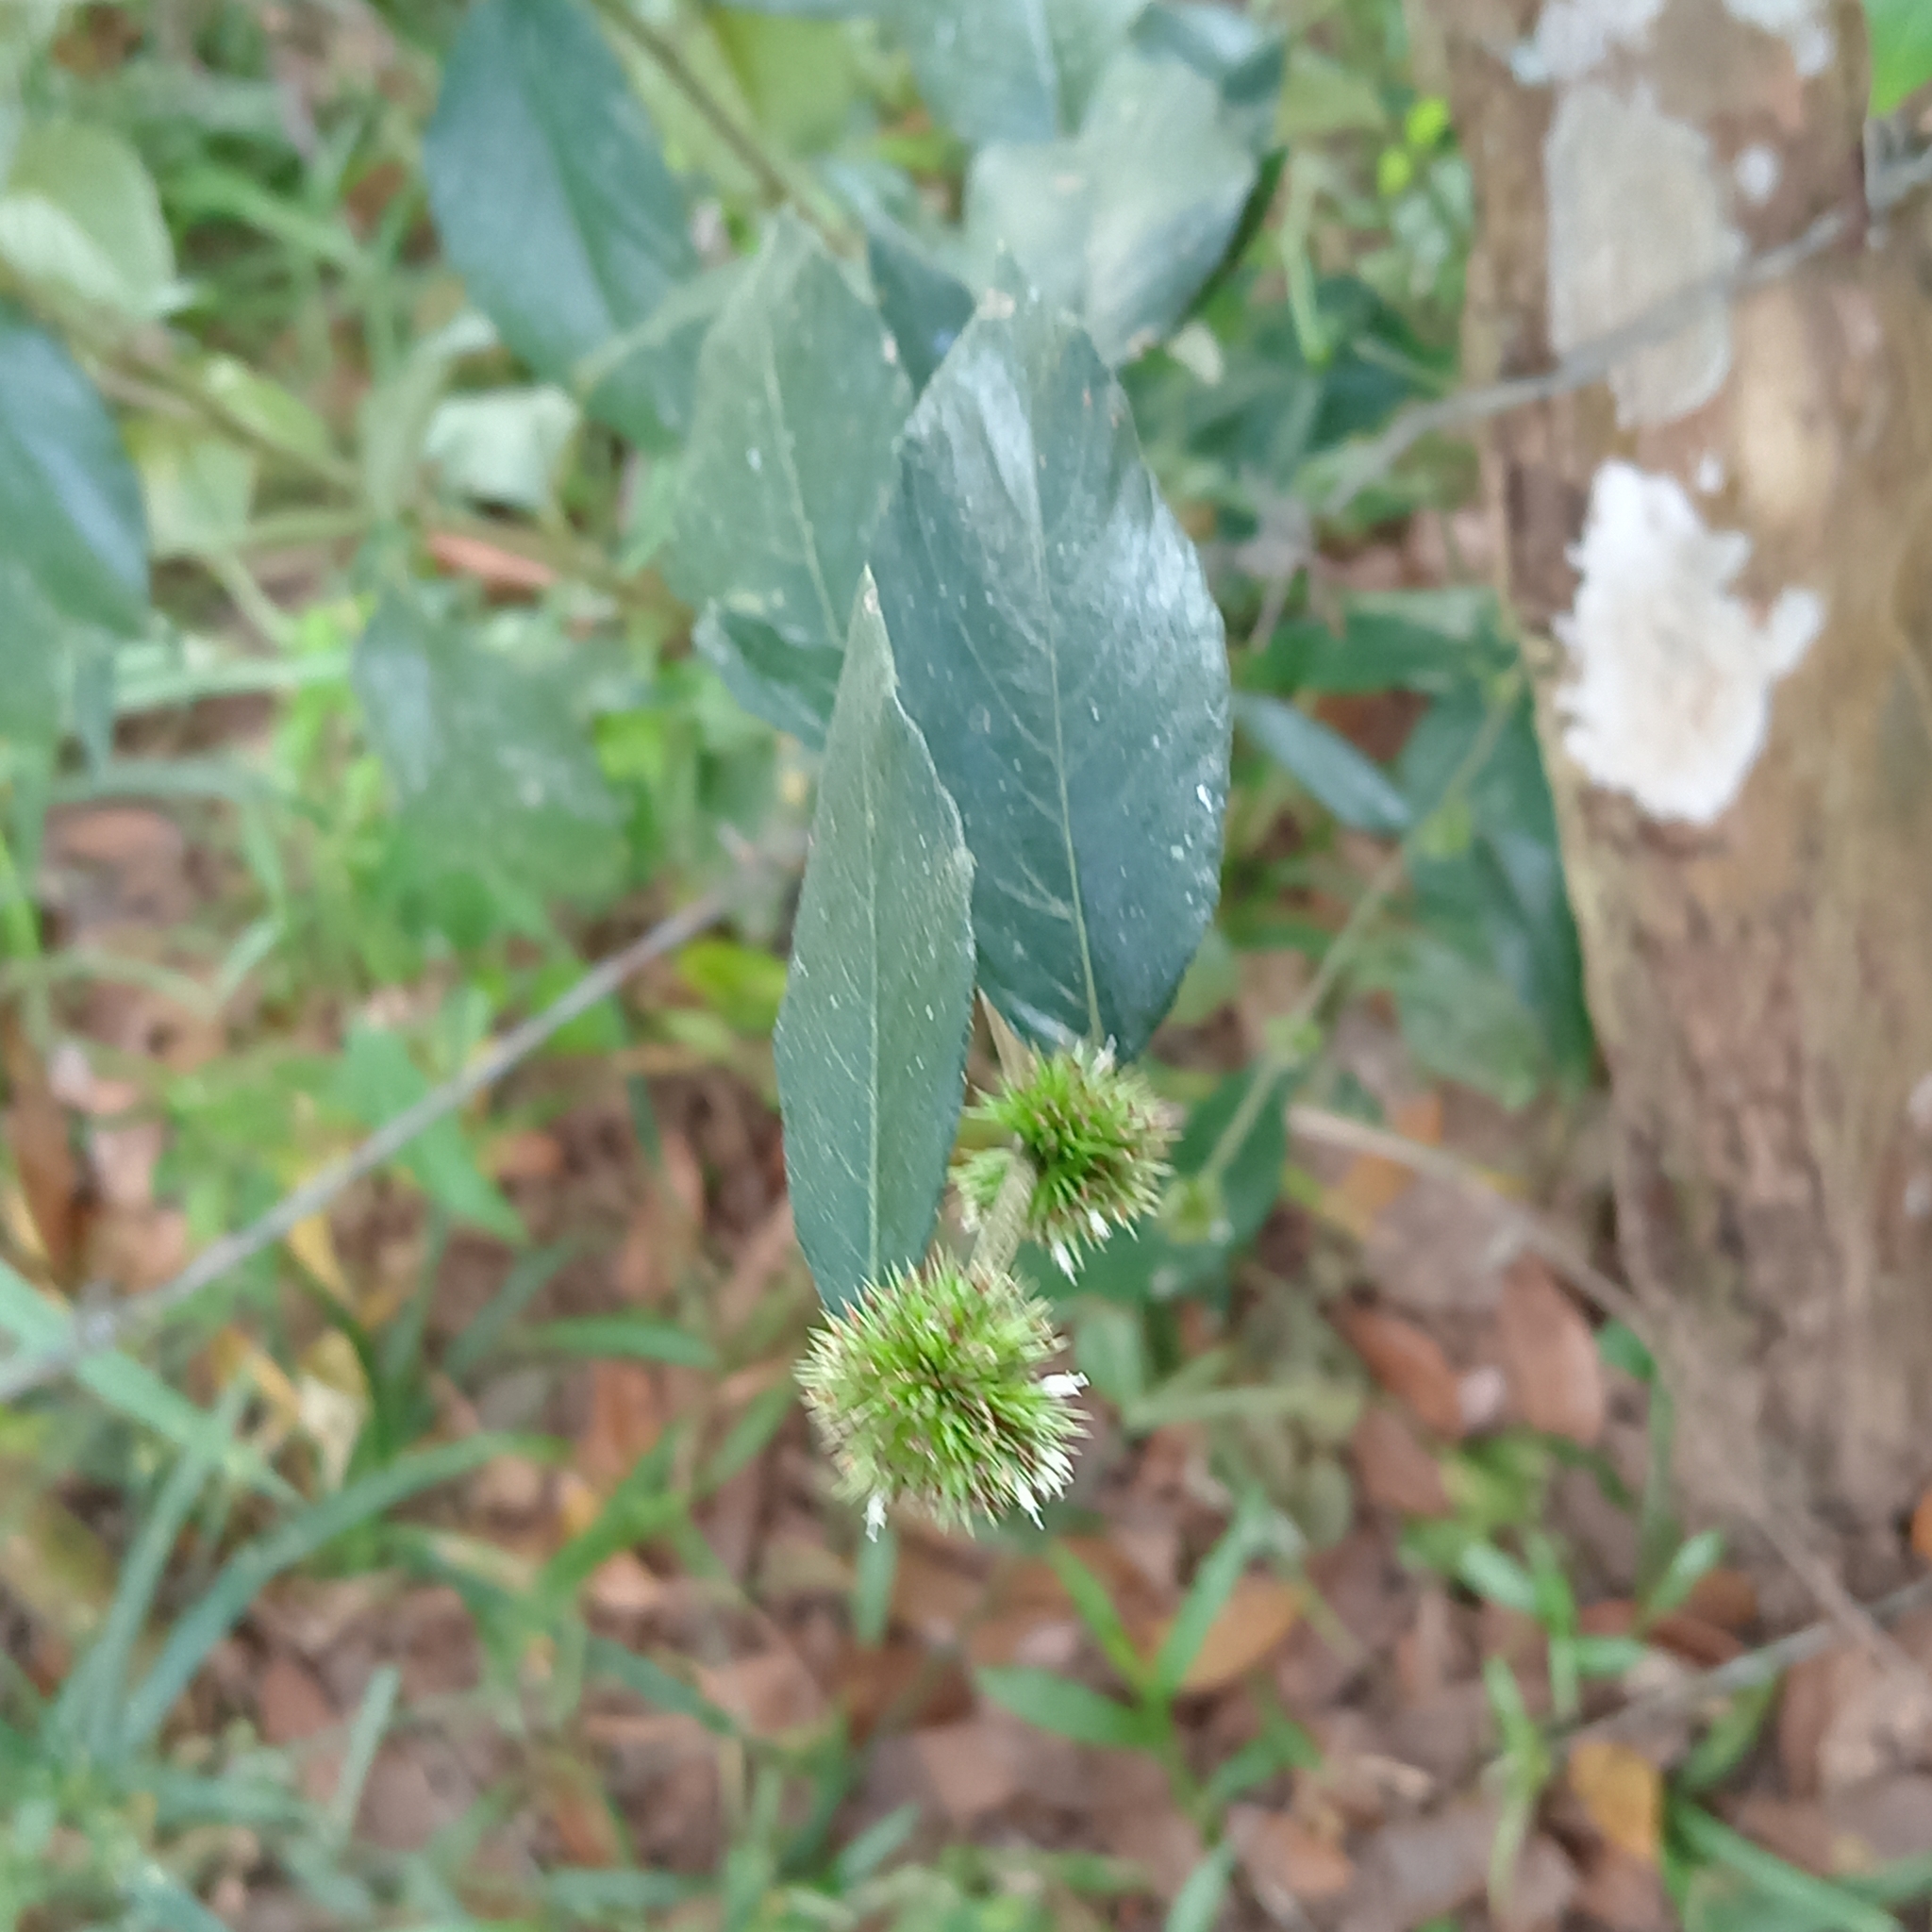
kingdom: Plantae
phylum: Tracheophyta
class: Magnoliopsida
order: Asterales
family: Asteraceae
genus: Elephantopus
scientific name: Elephantopus mollis
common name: Soft elephantsfoot
